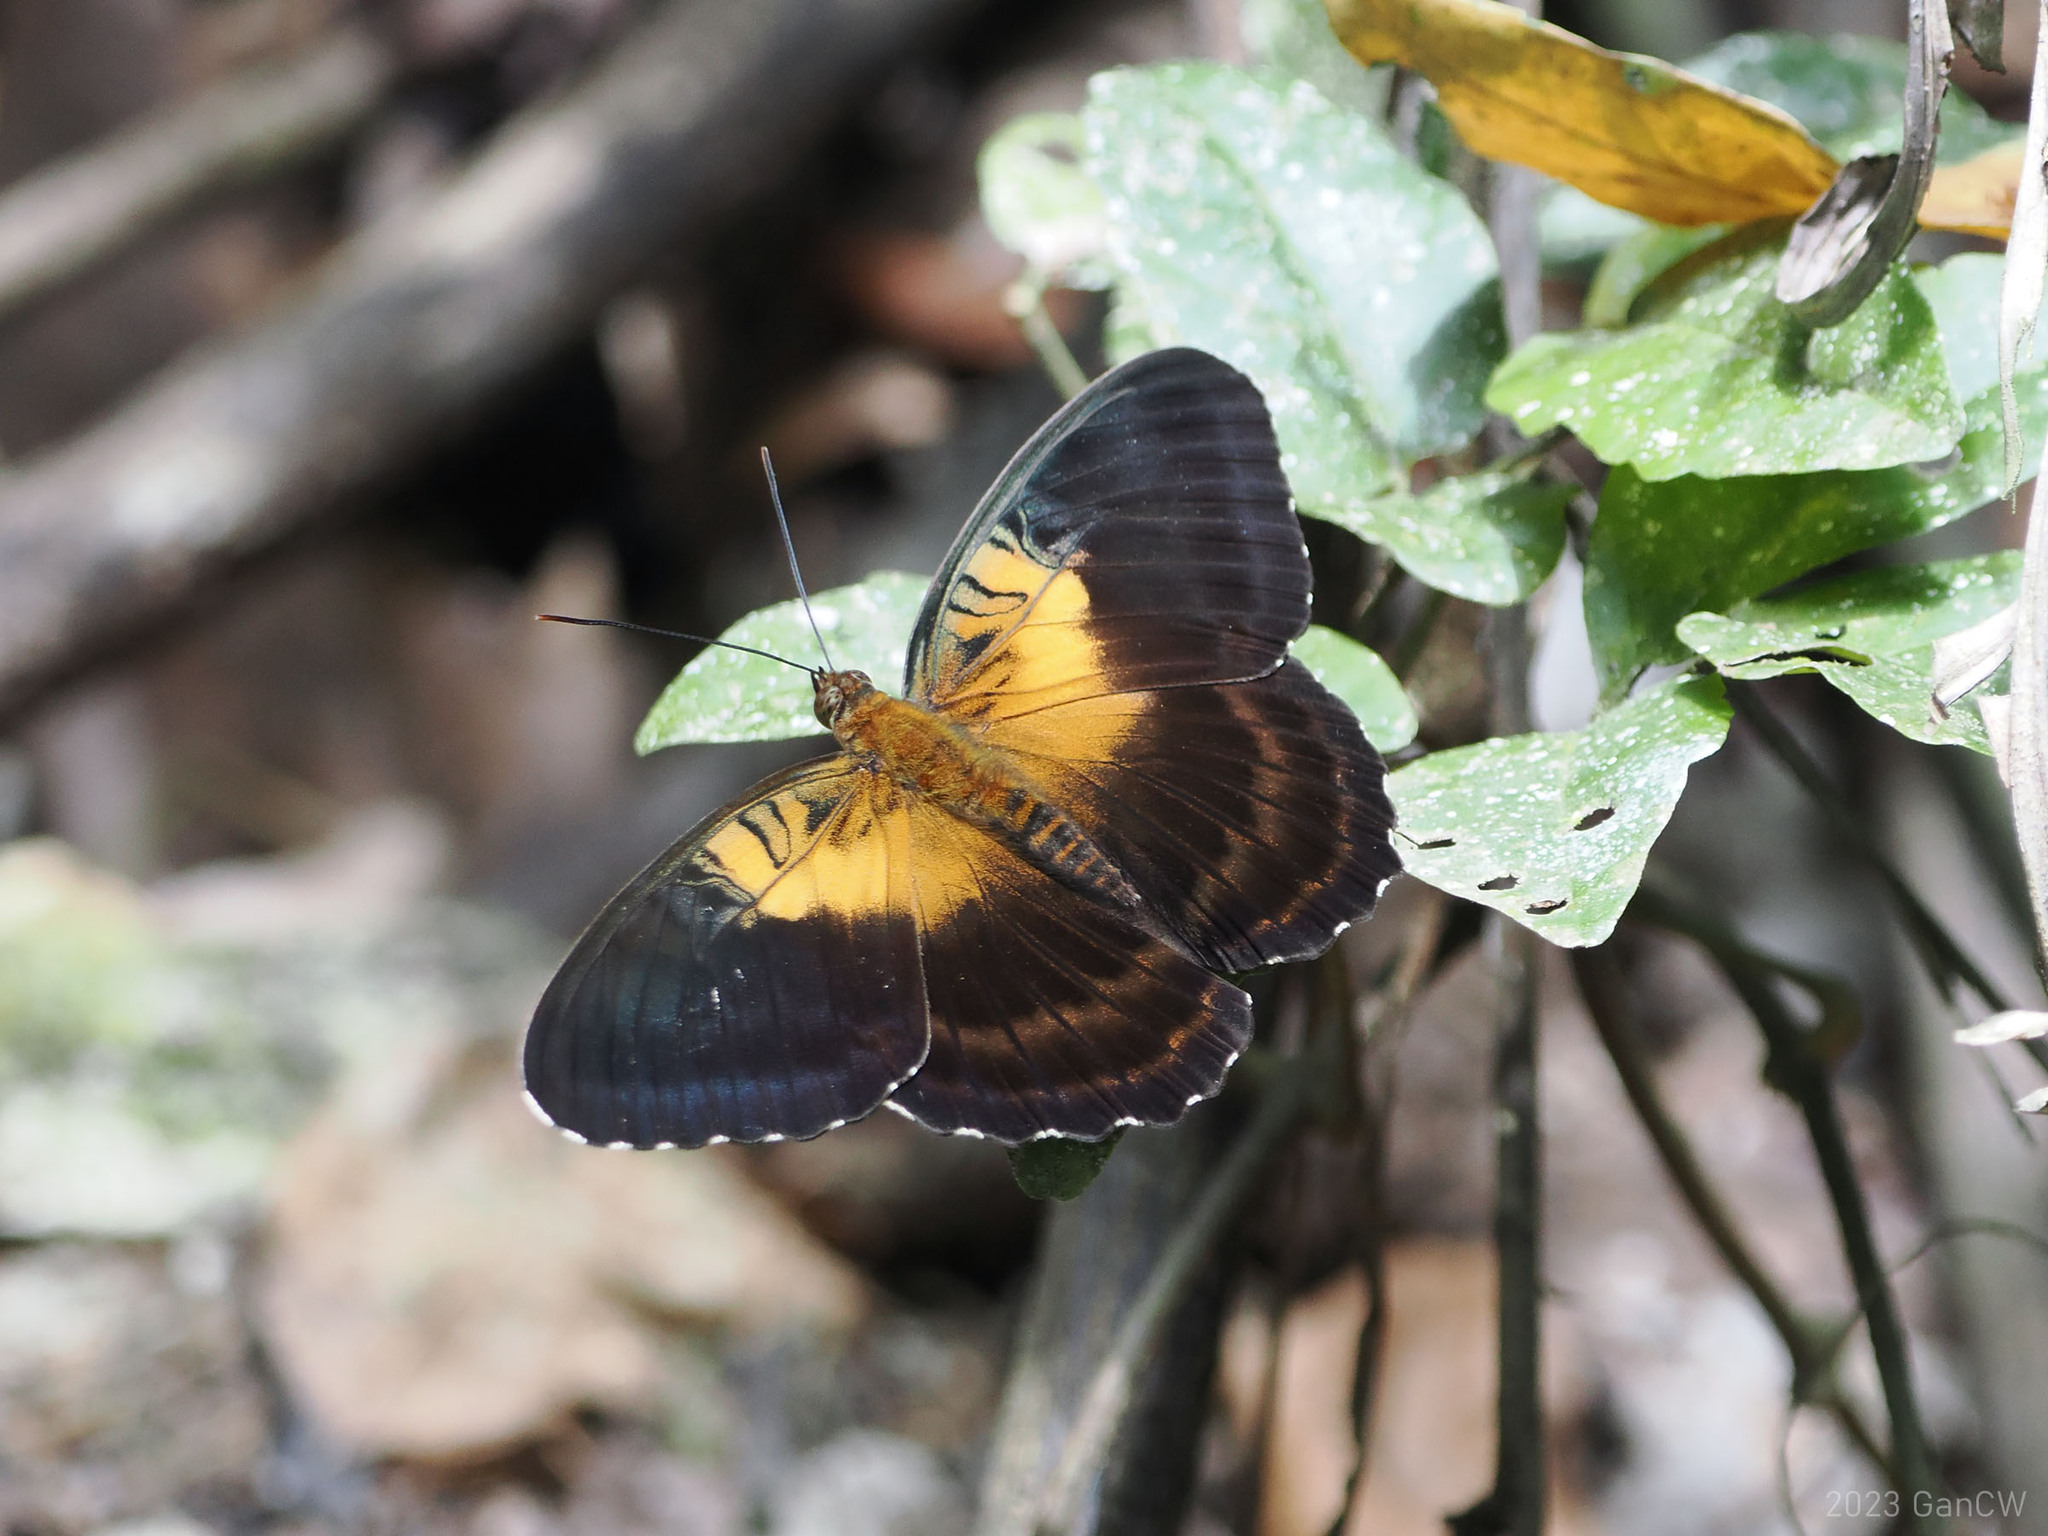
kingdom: Animalia
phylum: Arthropoda
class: Insecta
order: Lepidoptera
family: Nymphalidae
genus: Parthenos
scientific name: Parthenos aspila
